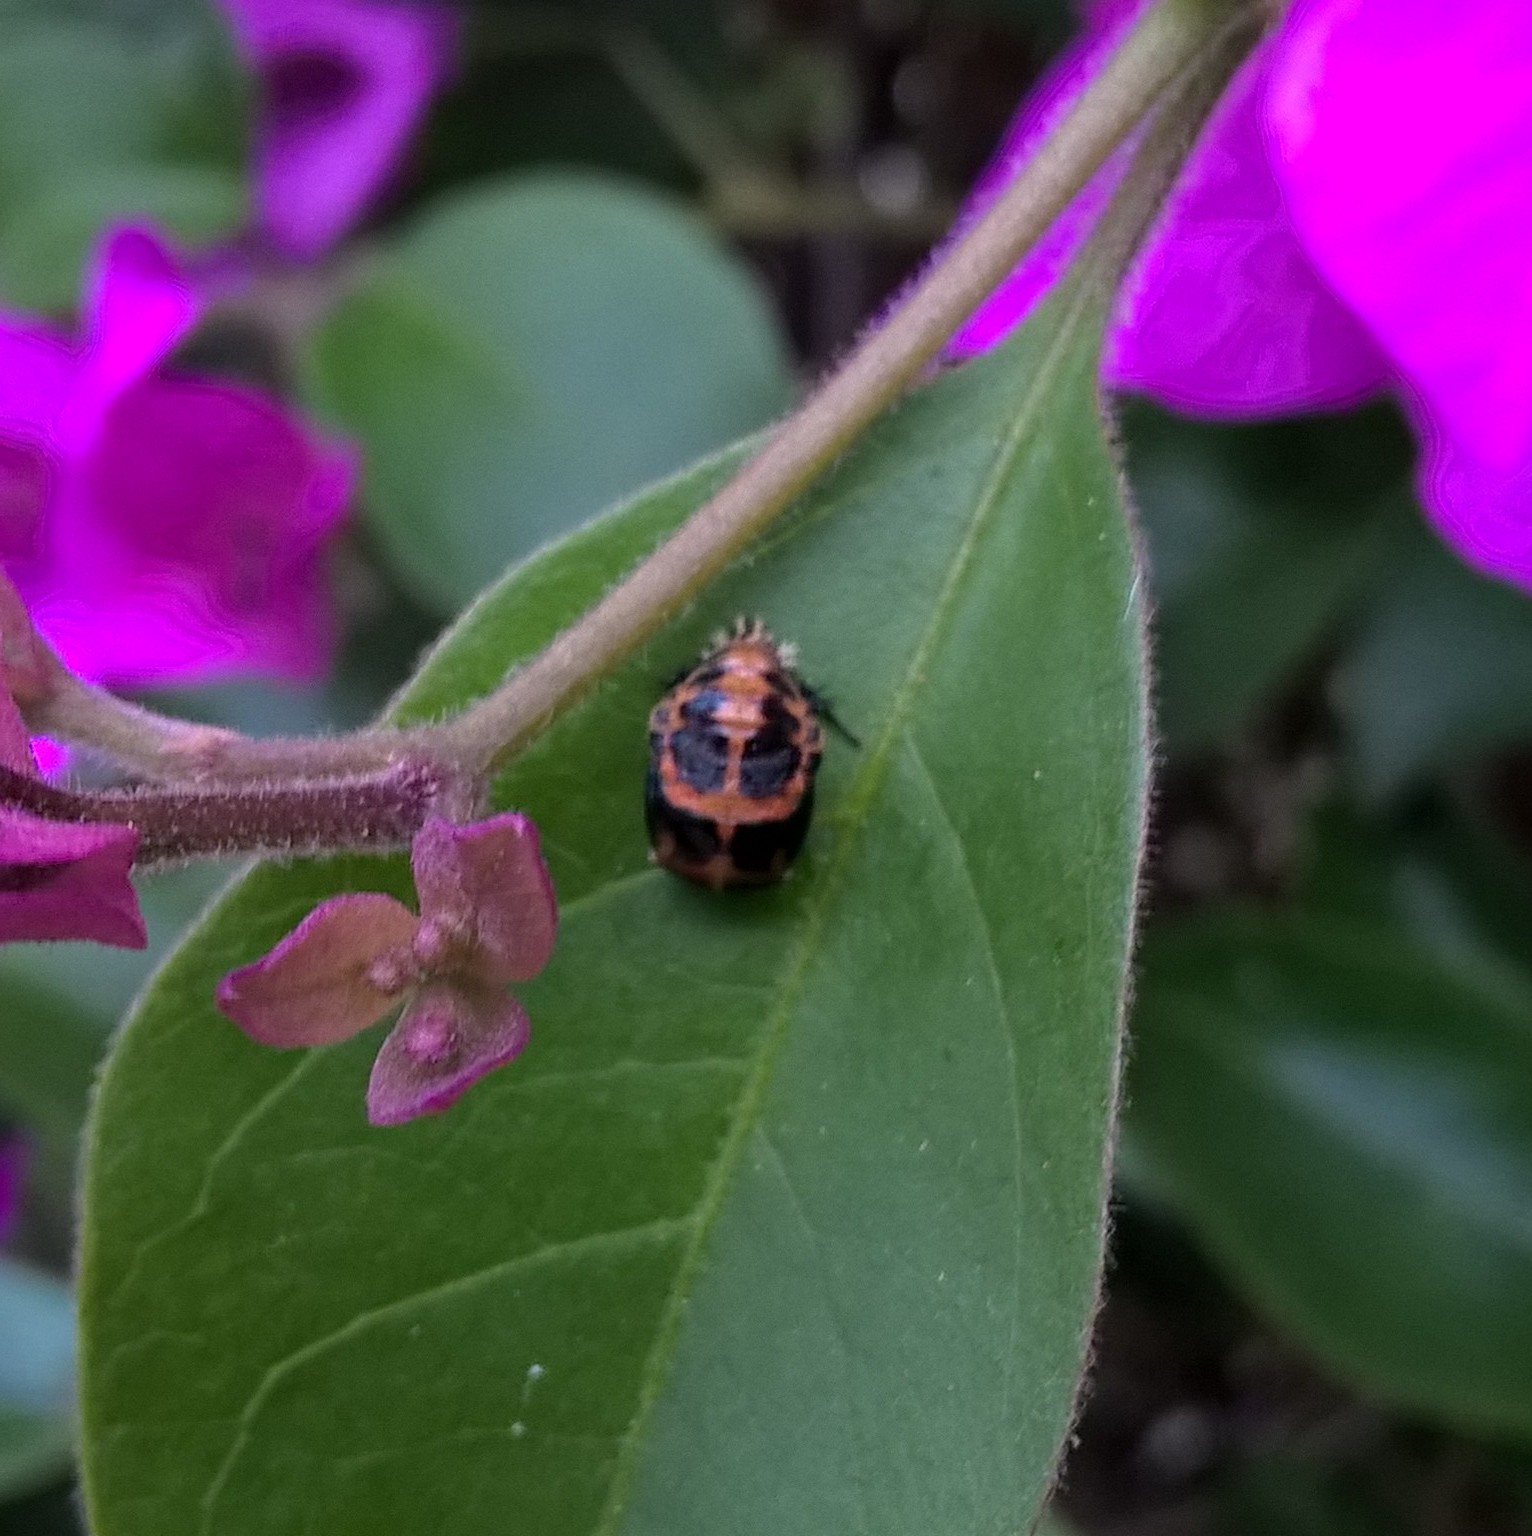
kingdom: Animalia
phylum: Arthropoda
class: Insecta
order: Coleoptera
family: Coccinellidae
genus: Harmonia
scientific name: Harmonia axyridis
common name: Harlequin ladybird
